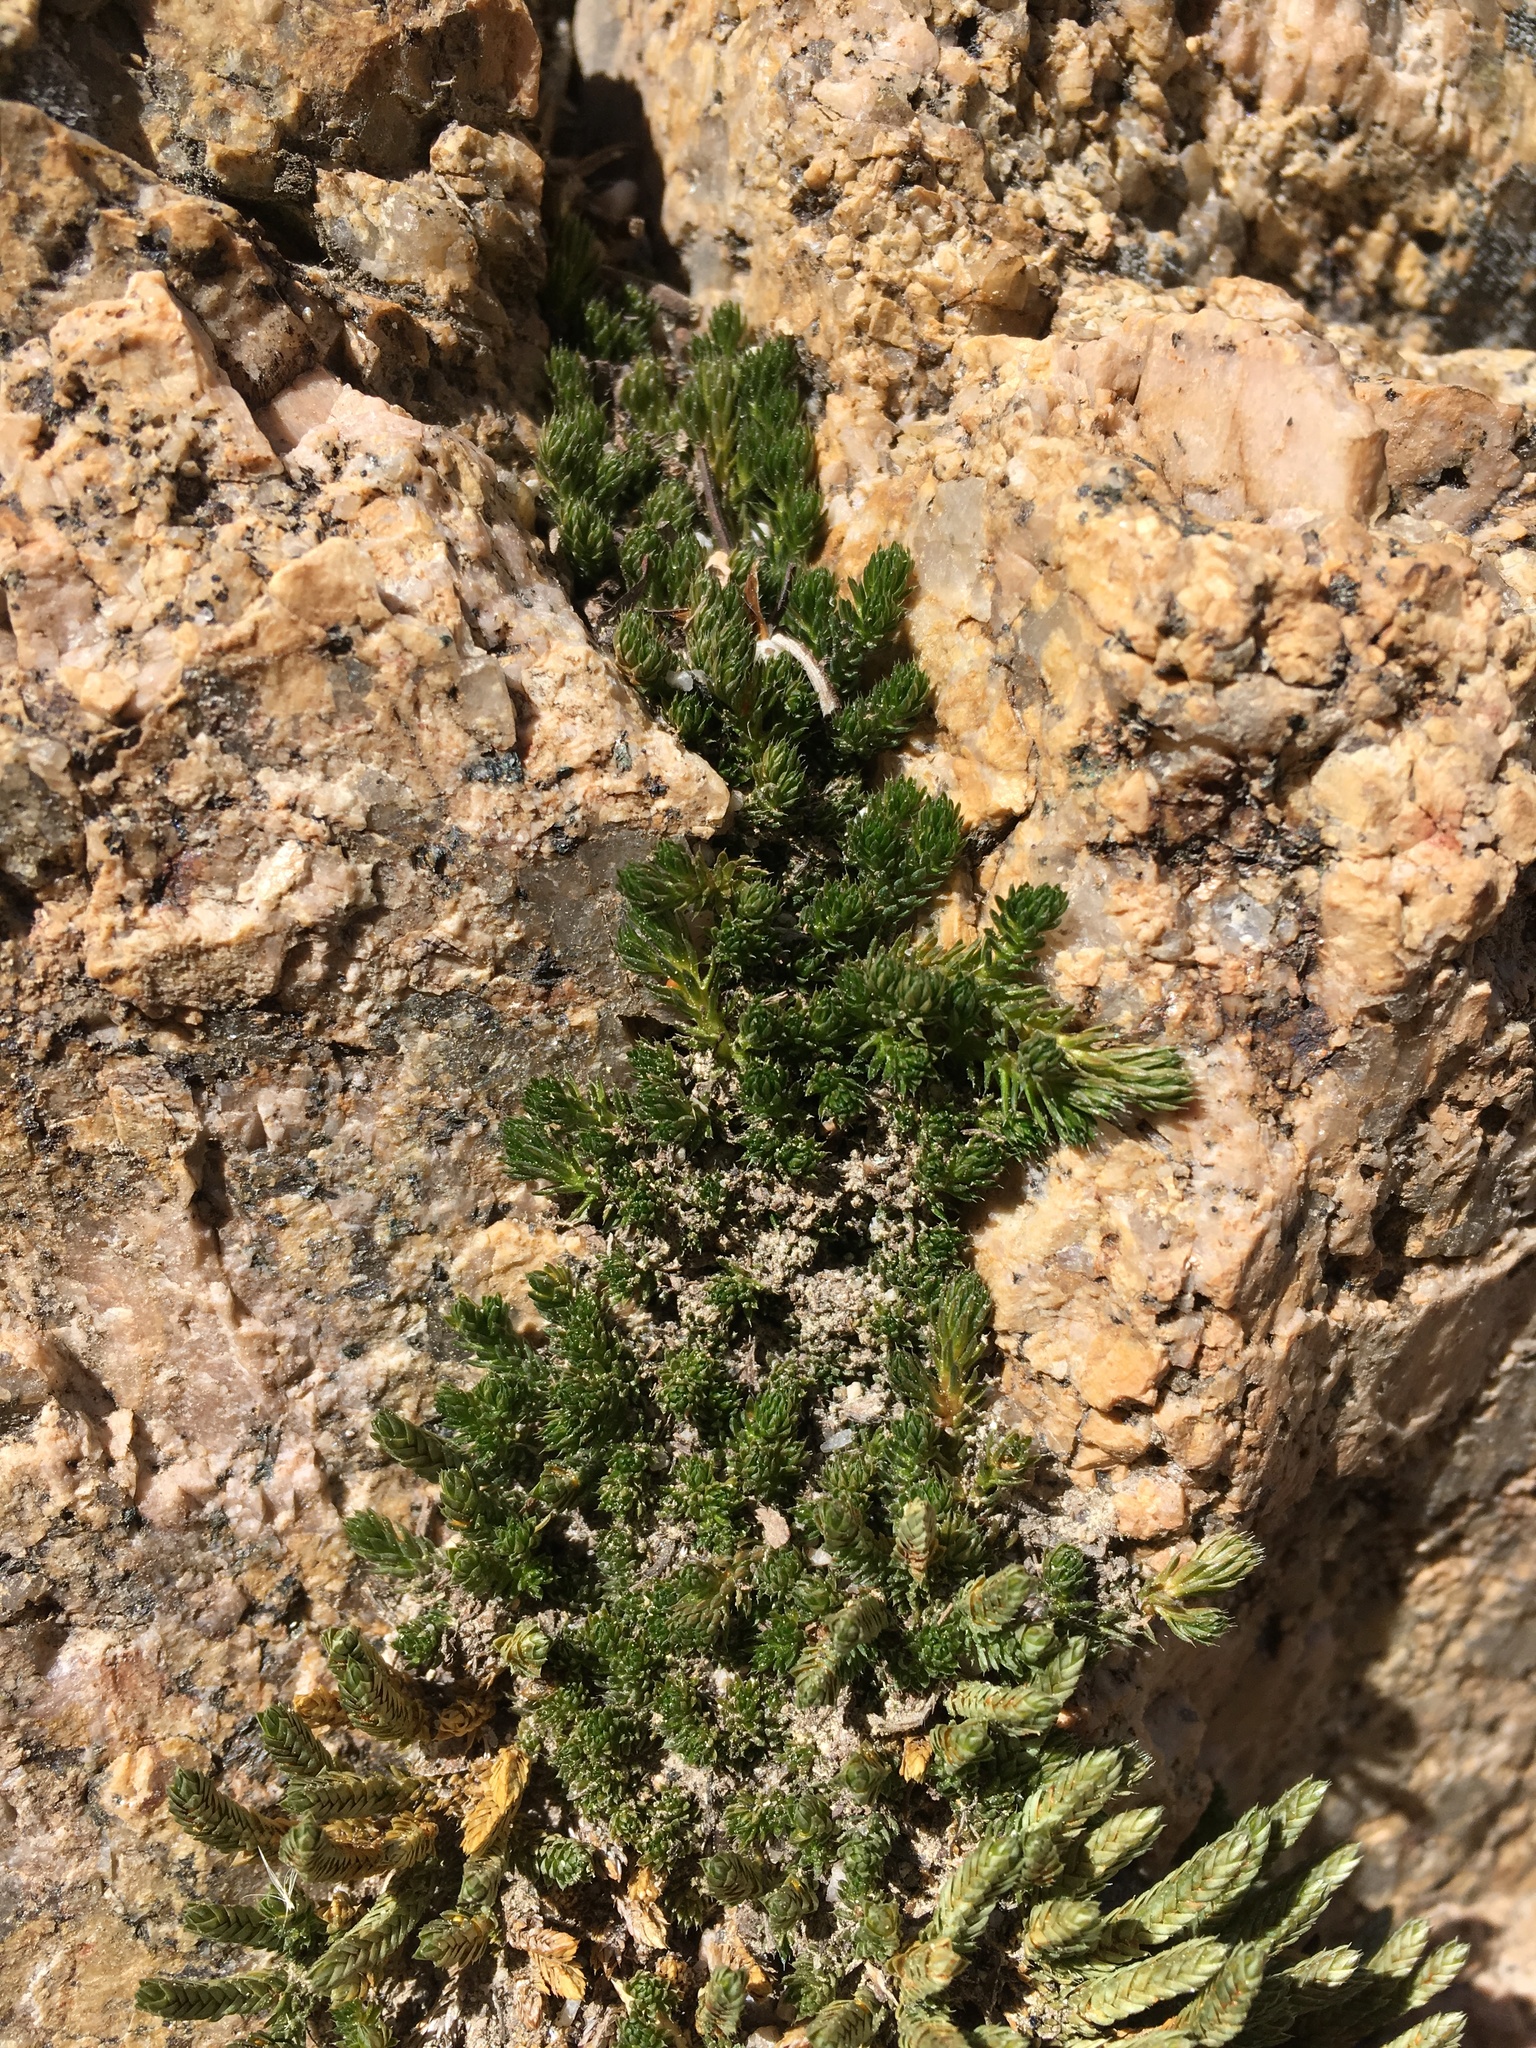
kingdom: Plantae
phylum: Tracheophyta
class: Lycopodiopsida
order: Selaginellales
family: Selaginellaceae
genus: Selaginella
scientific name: Selaginella watsonii
